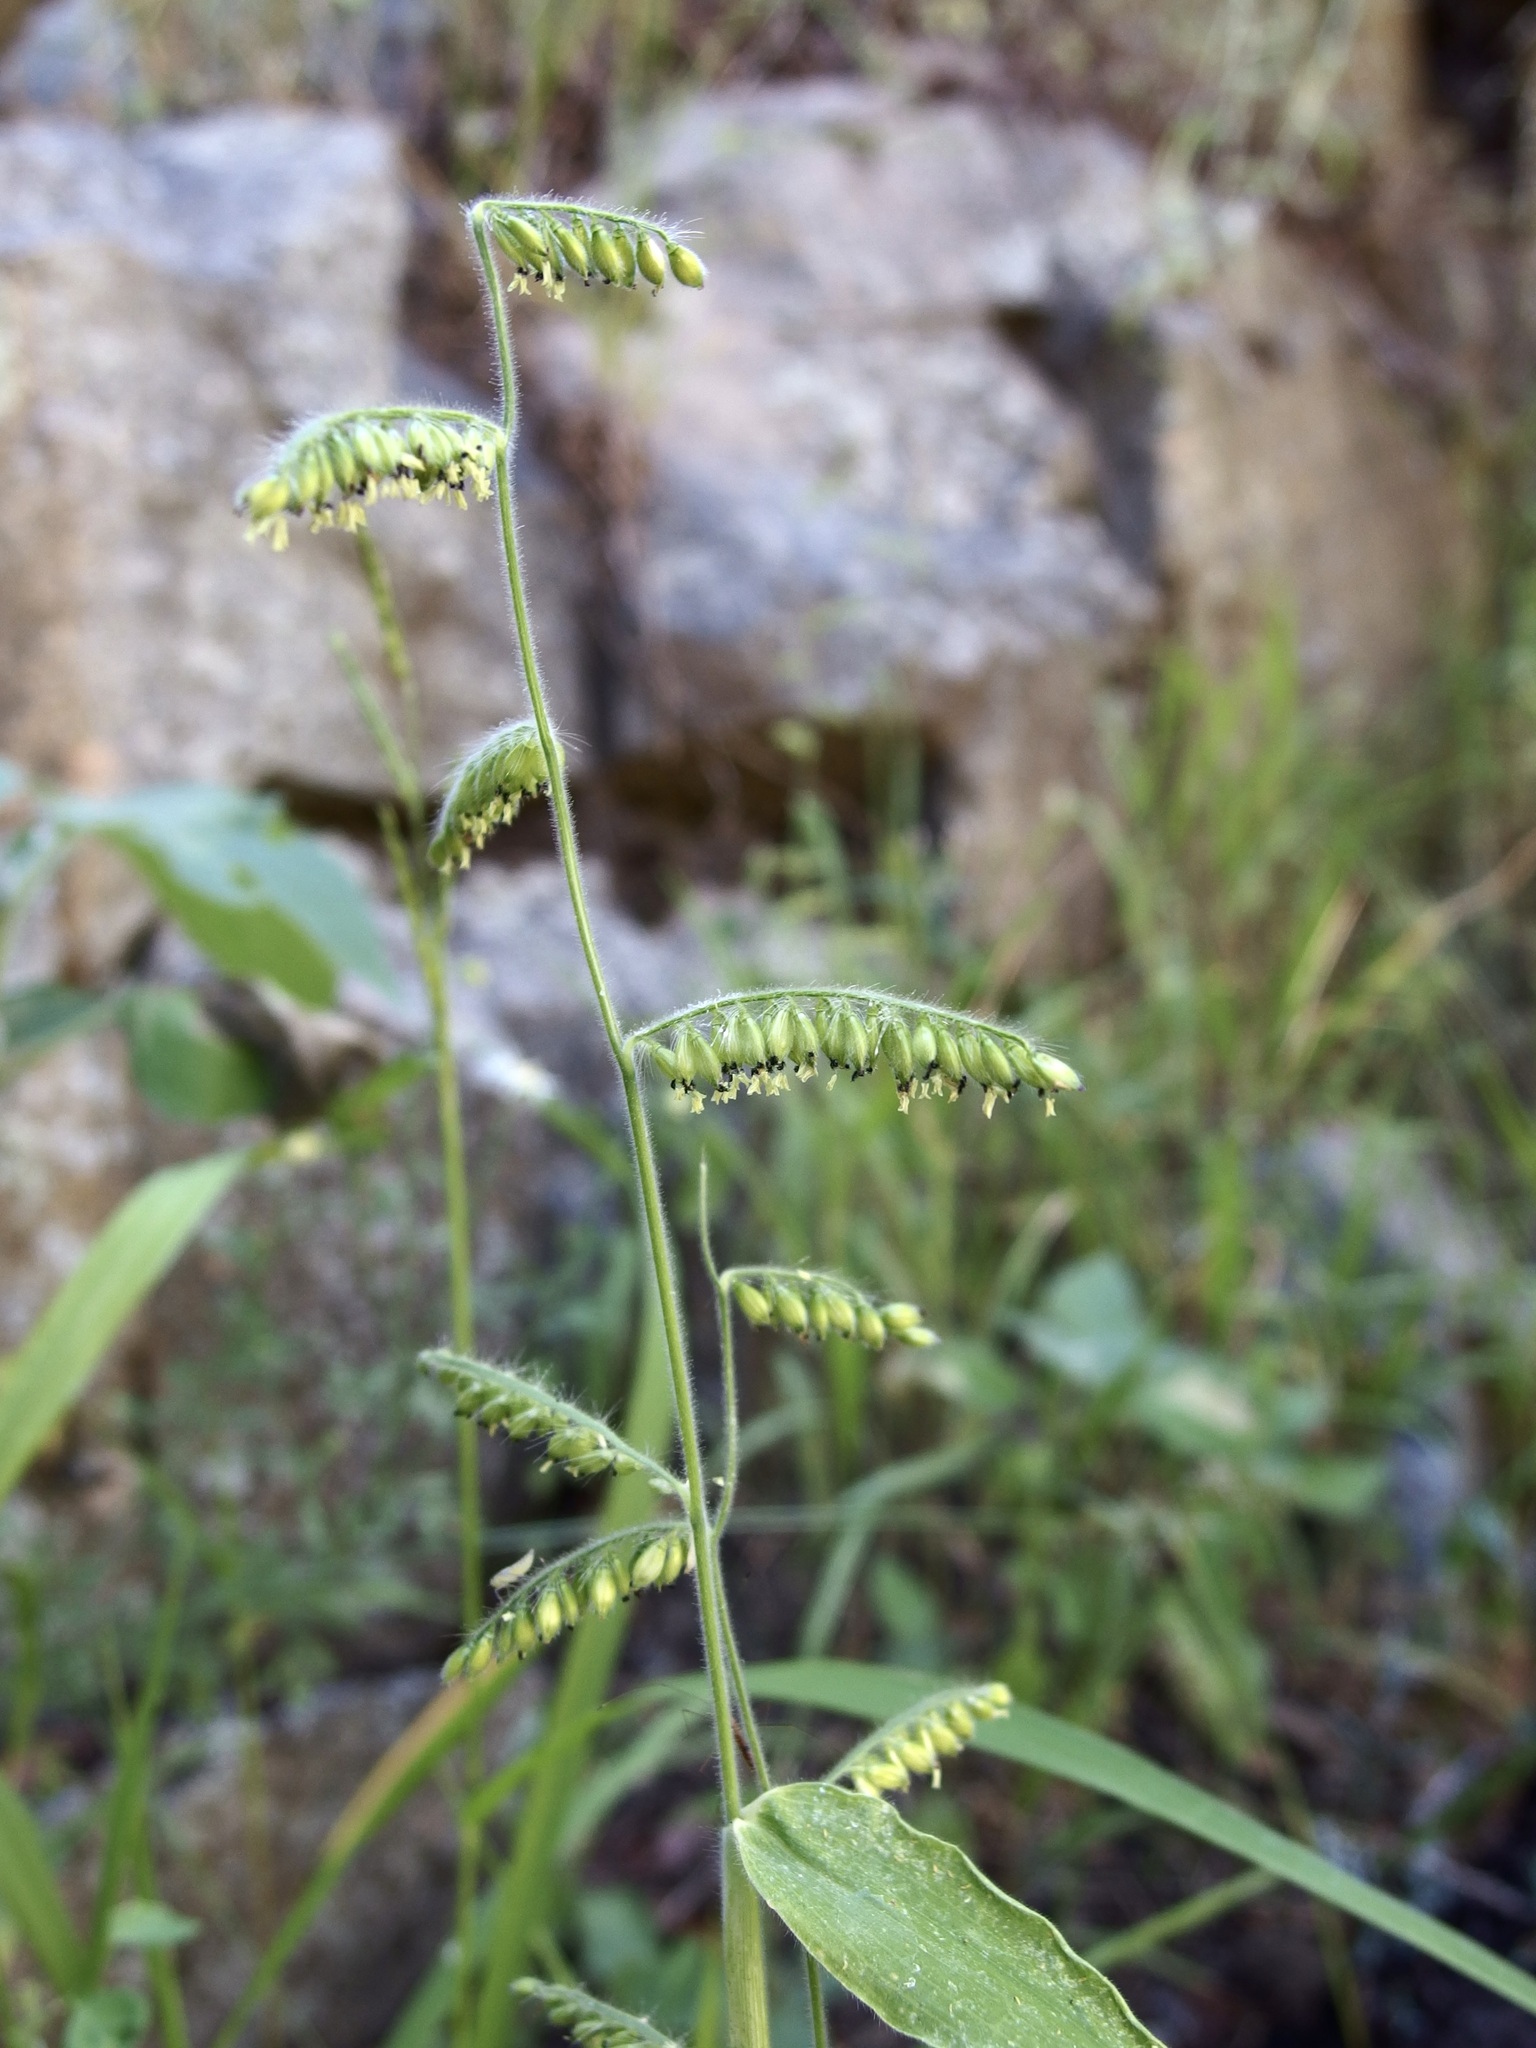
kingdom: Plantae
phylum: Tracheophyta
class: Liliopsida
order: Poales
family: Poaceae
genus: Eriochloa
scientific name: Eriochloa lemmonii
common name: Canyon cup grass
